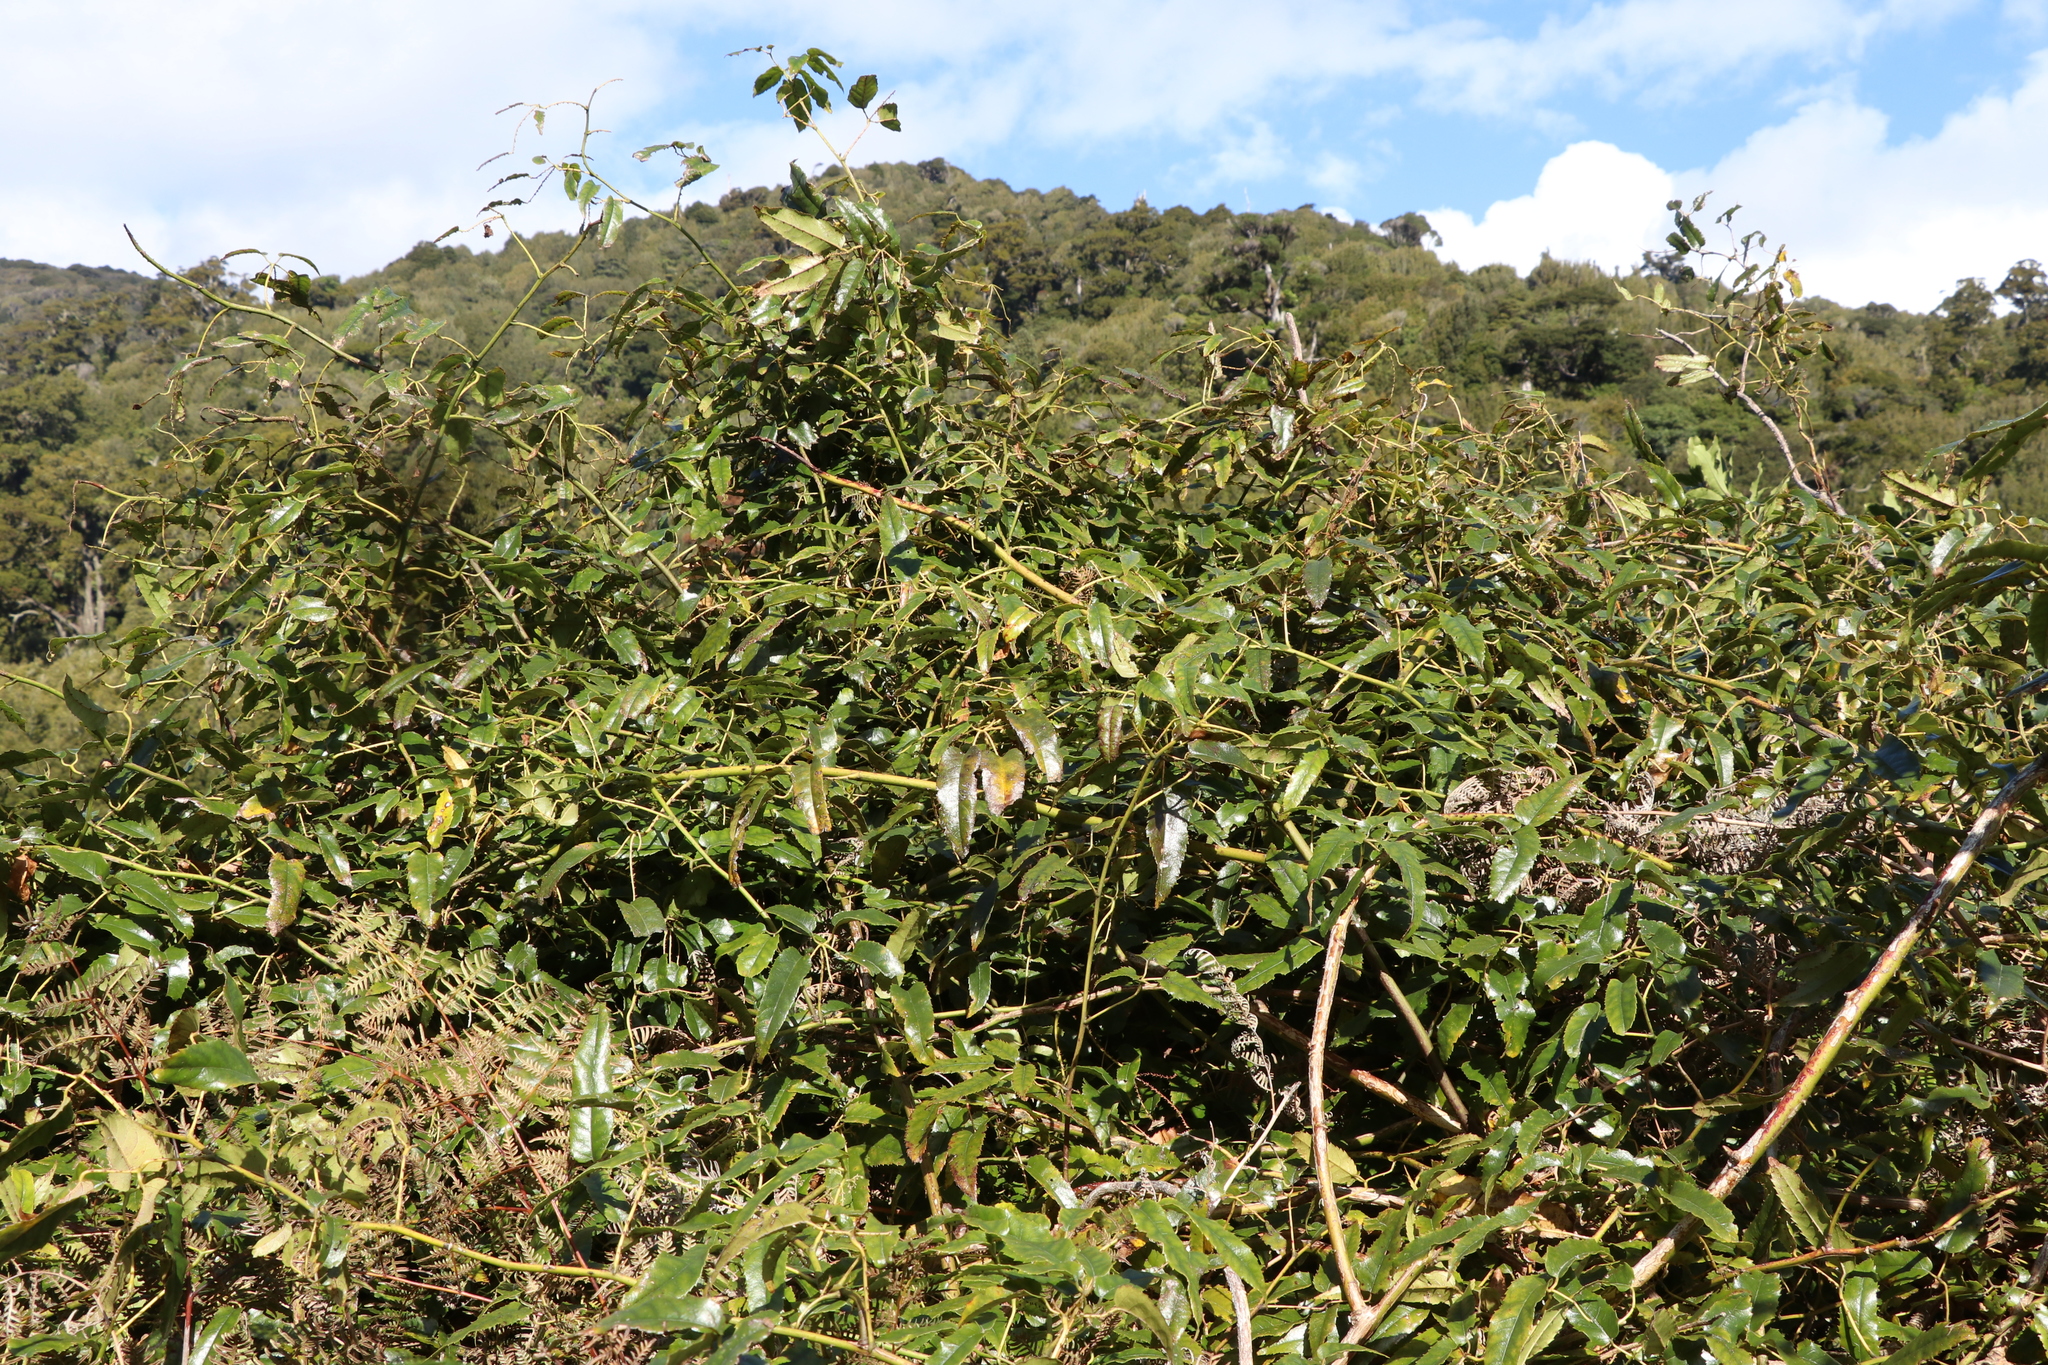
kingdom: Plantae
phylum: Tracheophyta
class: Magnoliopsida
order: Rosales
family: Rosaceae
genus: Rubus
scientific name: Rubus cissoides
